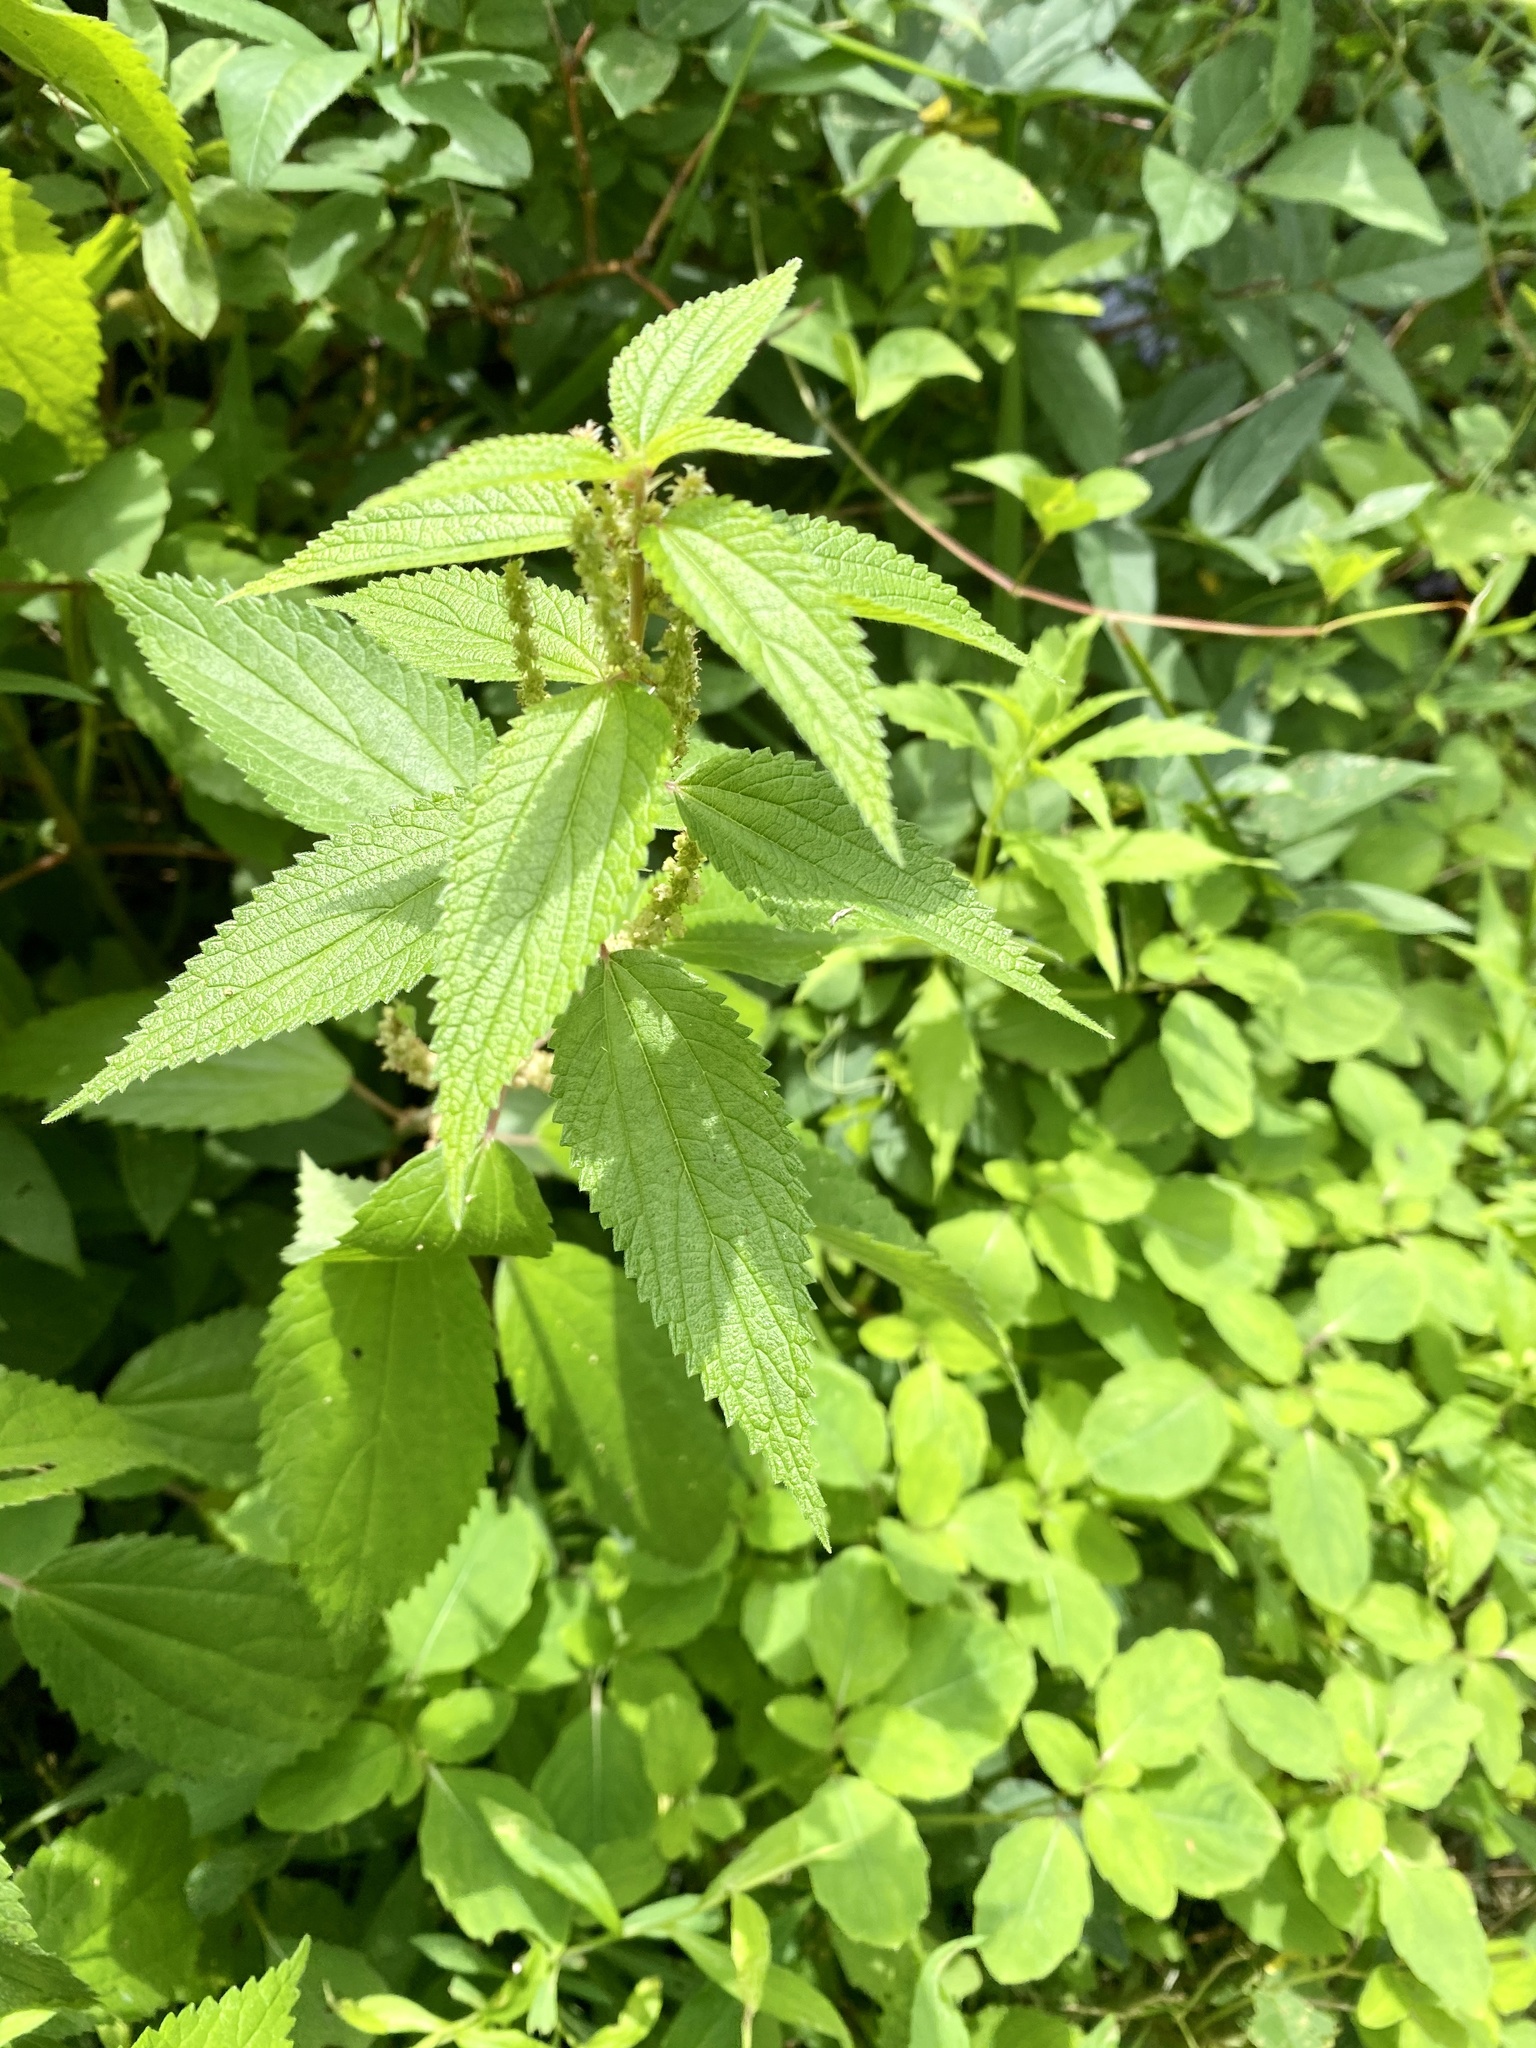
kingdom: Plantae
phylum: Tracheophyta
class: Magnoliopsida
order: Rosales
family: Urticaceae
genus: Boehmeria
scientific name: Boehmeria cylindrica
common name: Bog-hemp
